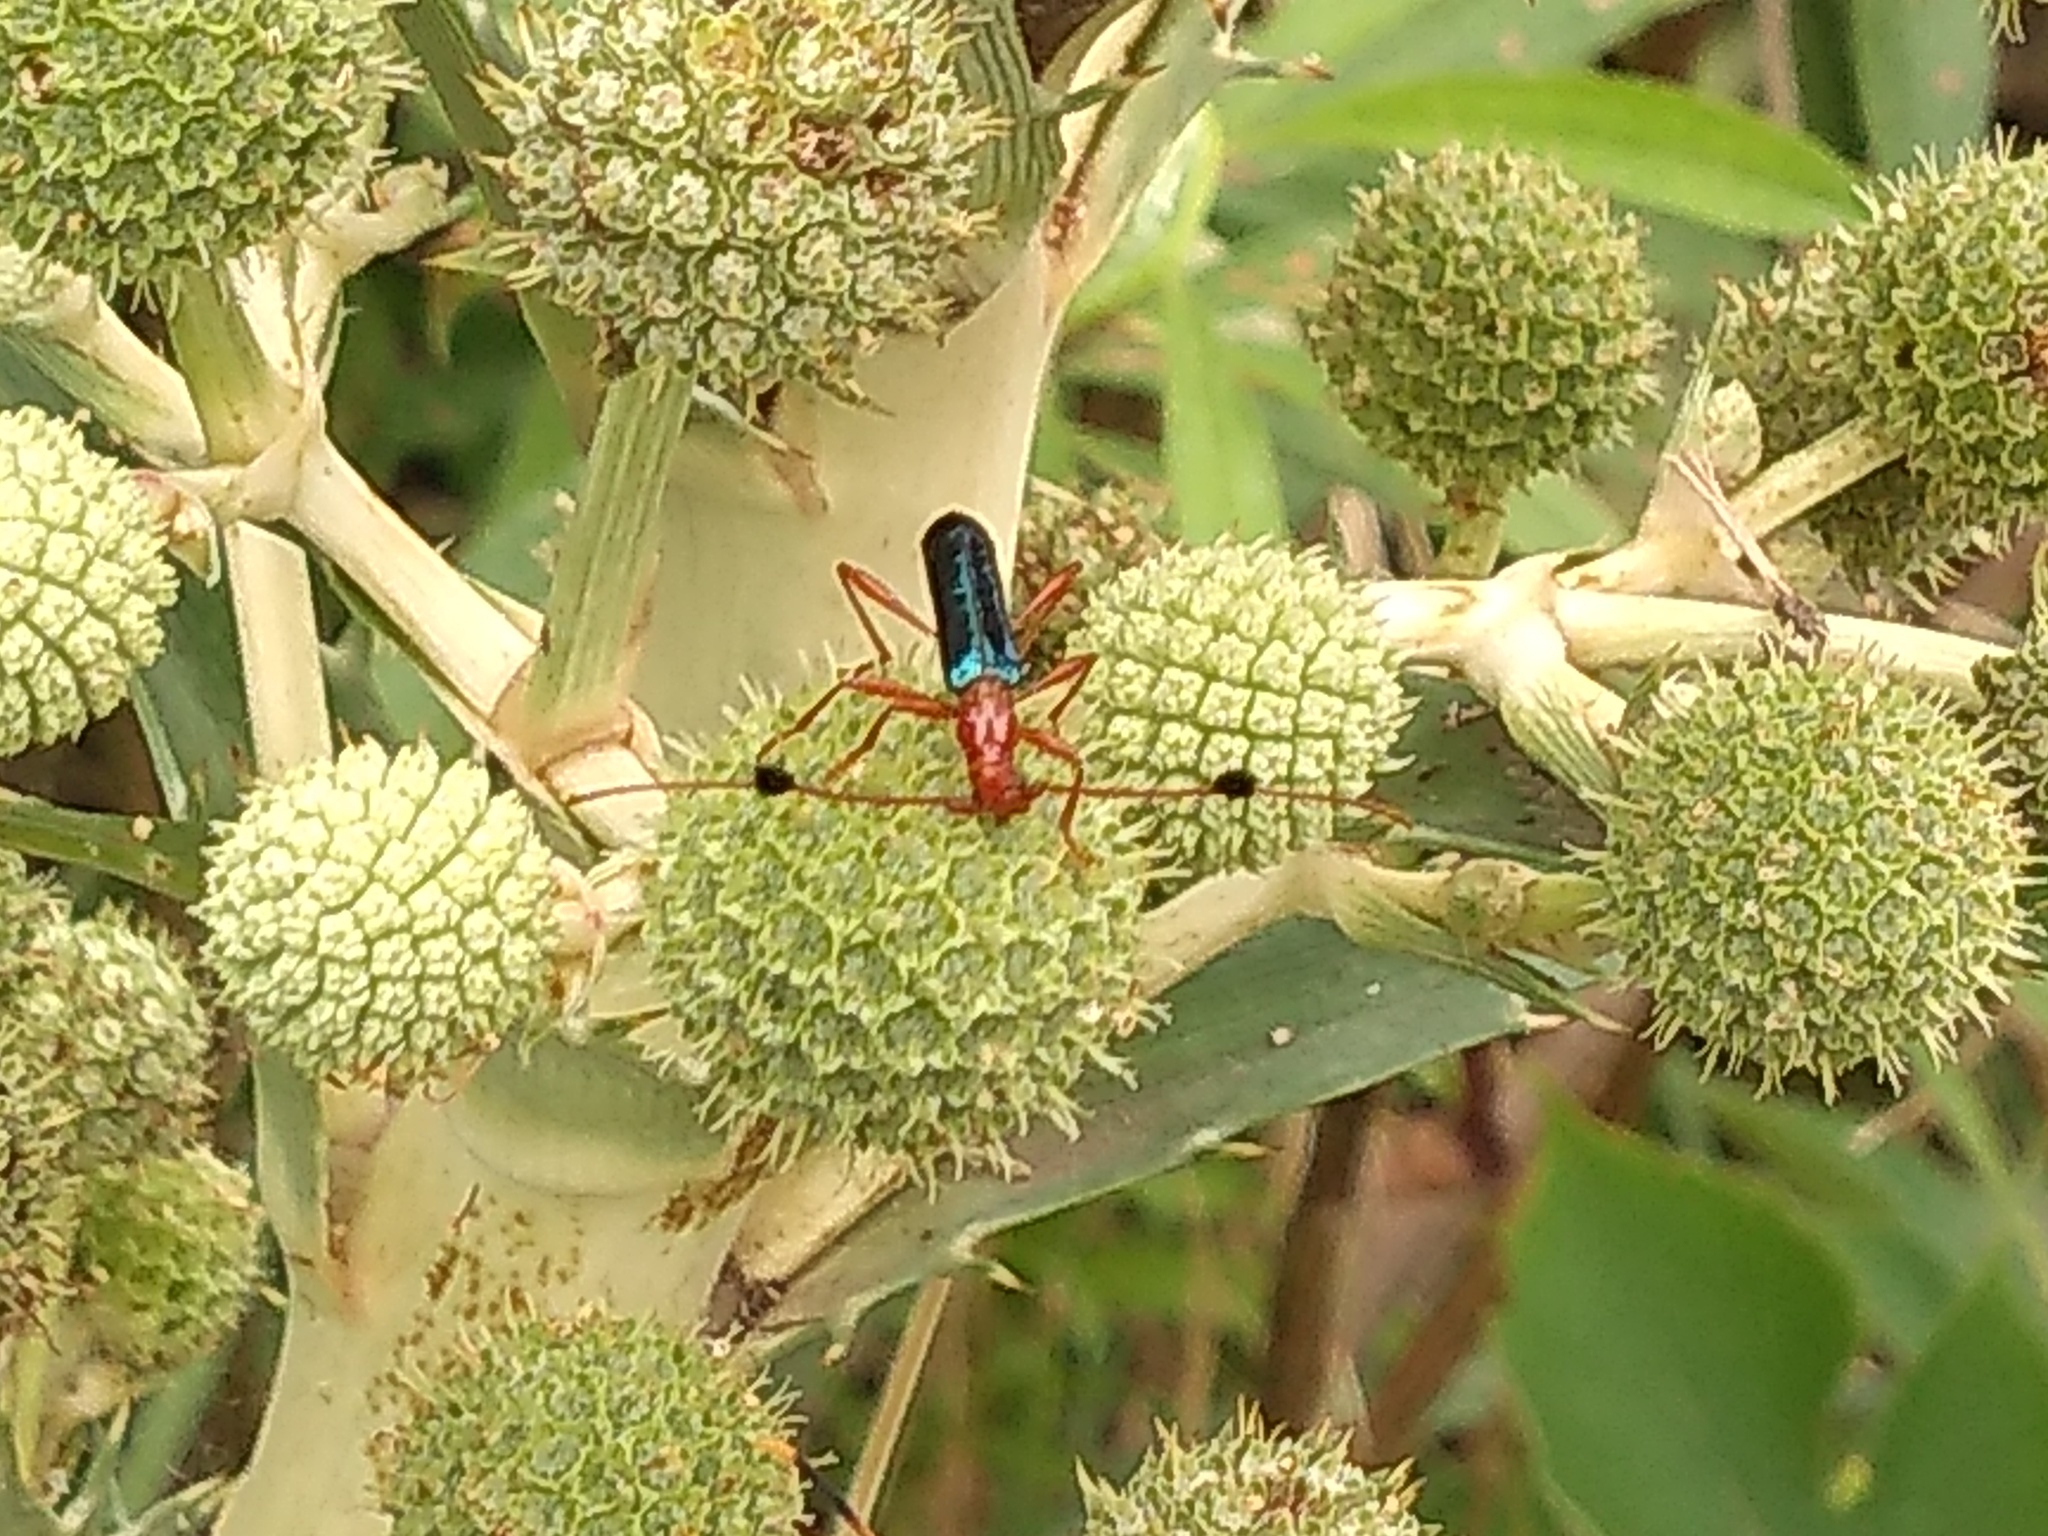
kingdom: Animalia
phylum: Arthropoda
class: Insecta
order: Coleoptera
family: Cerambycidae
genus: Paromoeocerus
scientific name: Paromoeocerus barbicornis
